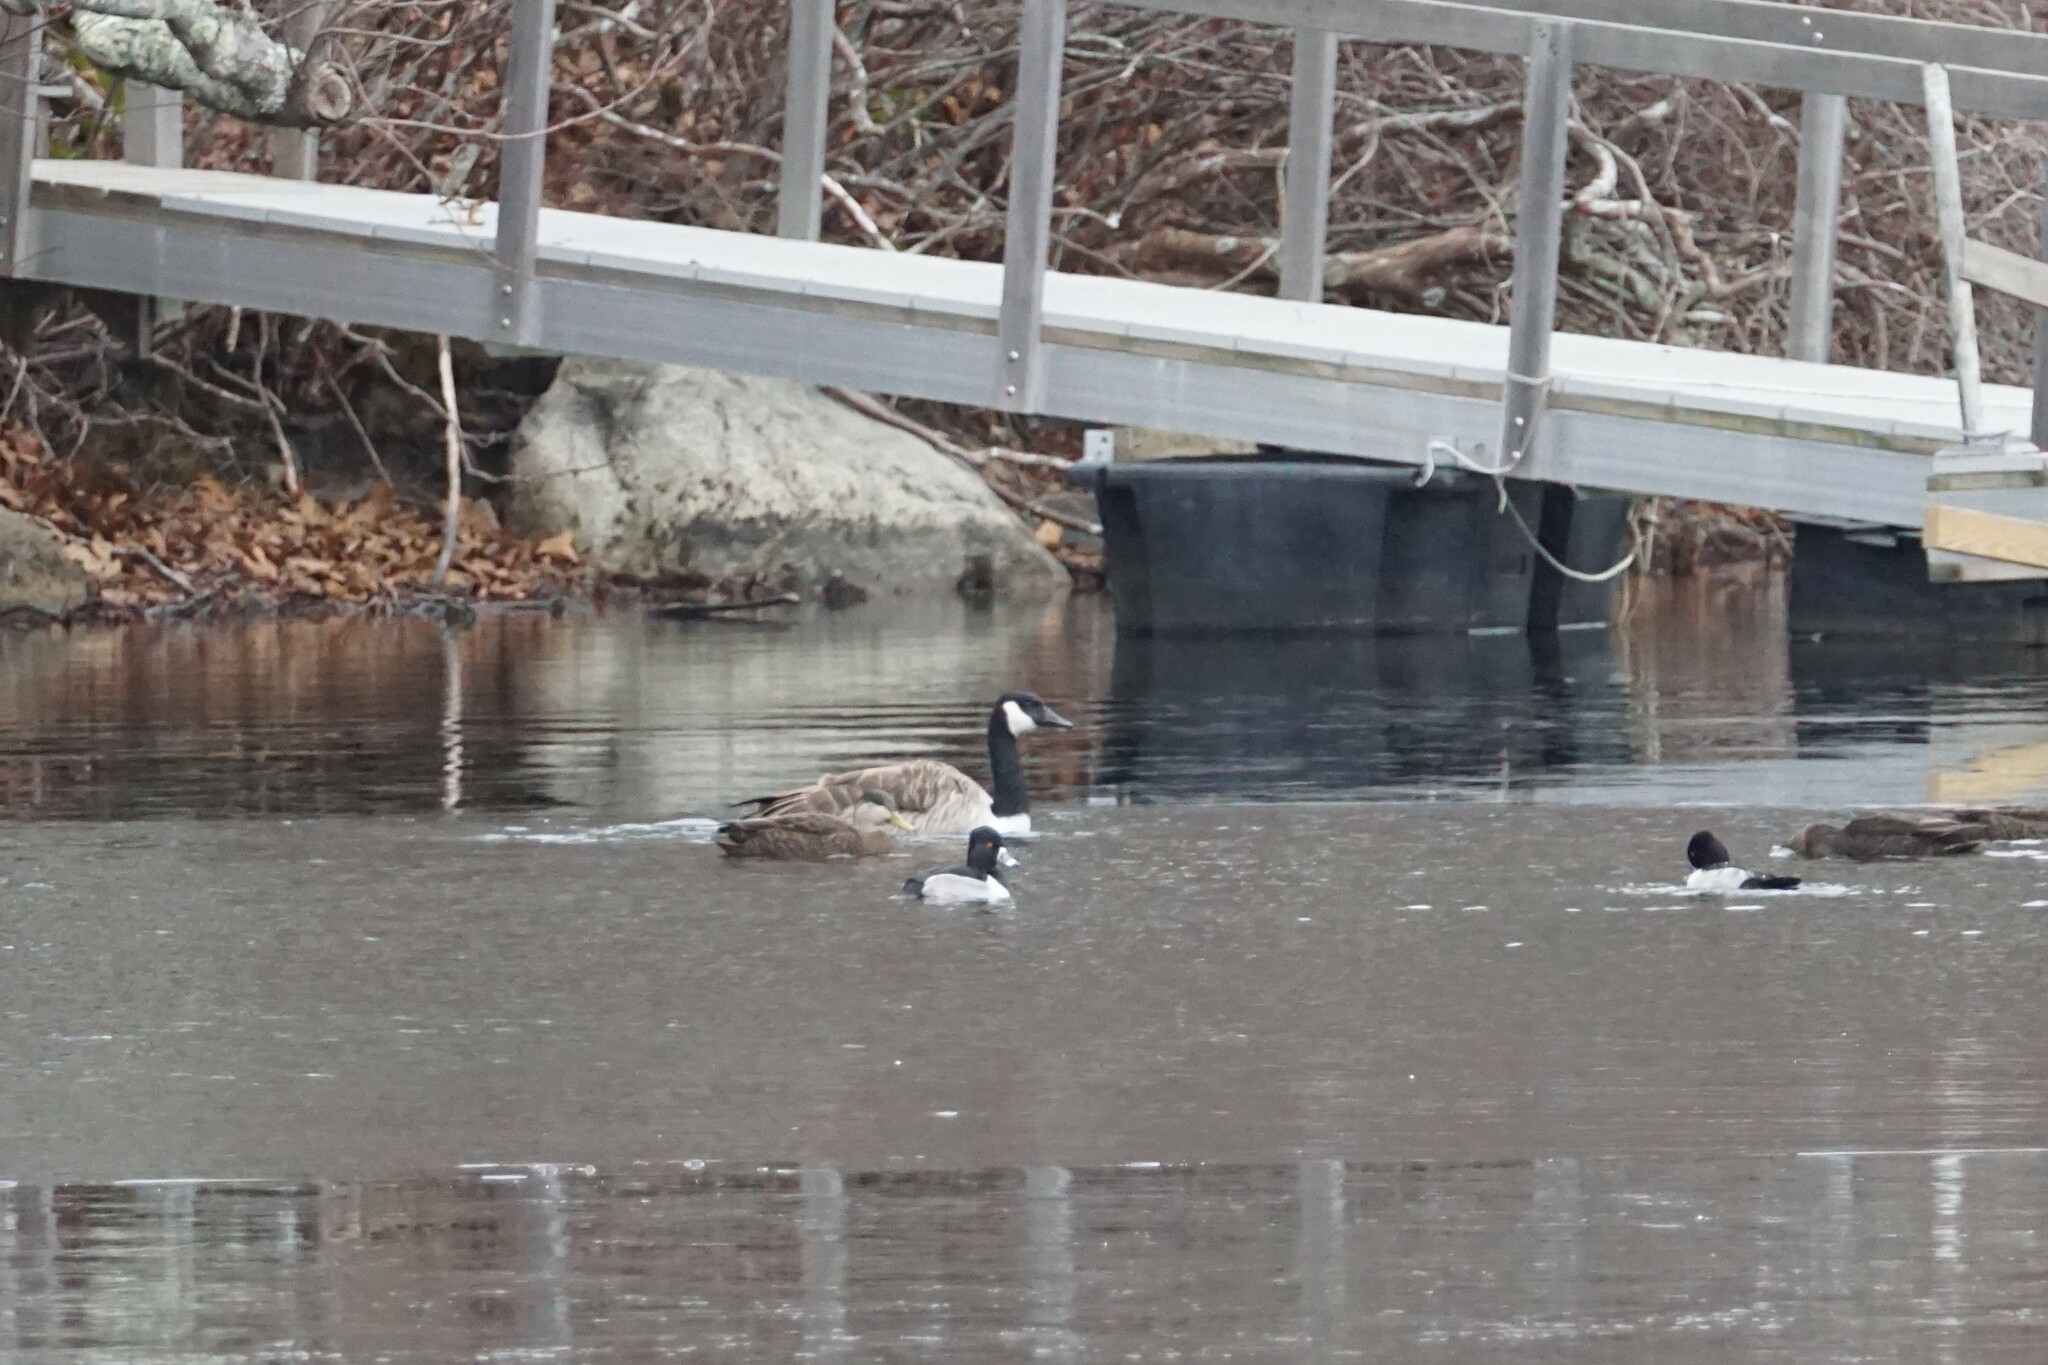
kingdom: Animalia
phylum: Chordata
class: Aves
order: Anseriformes
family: Anatidae
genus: Aythya
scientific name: Aythya collaris
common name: Ring-necked duck
